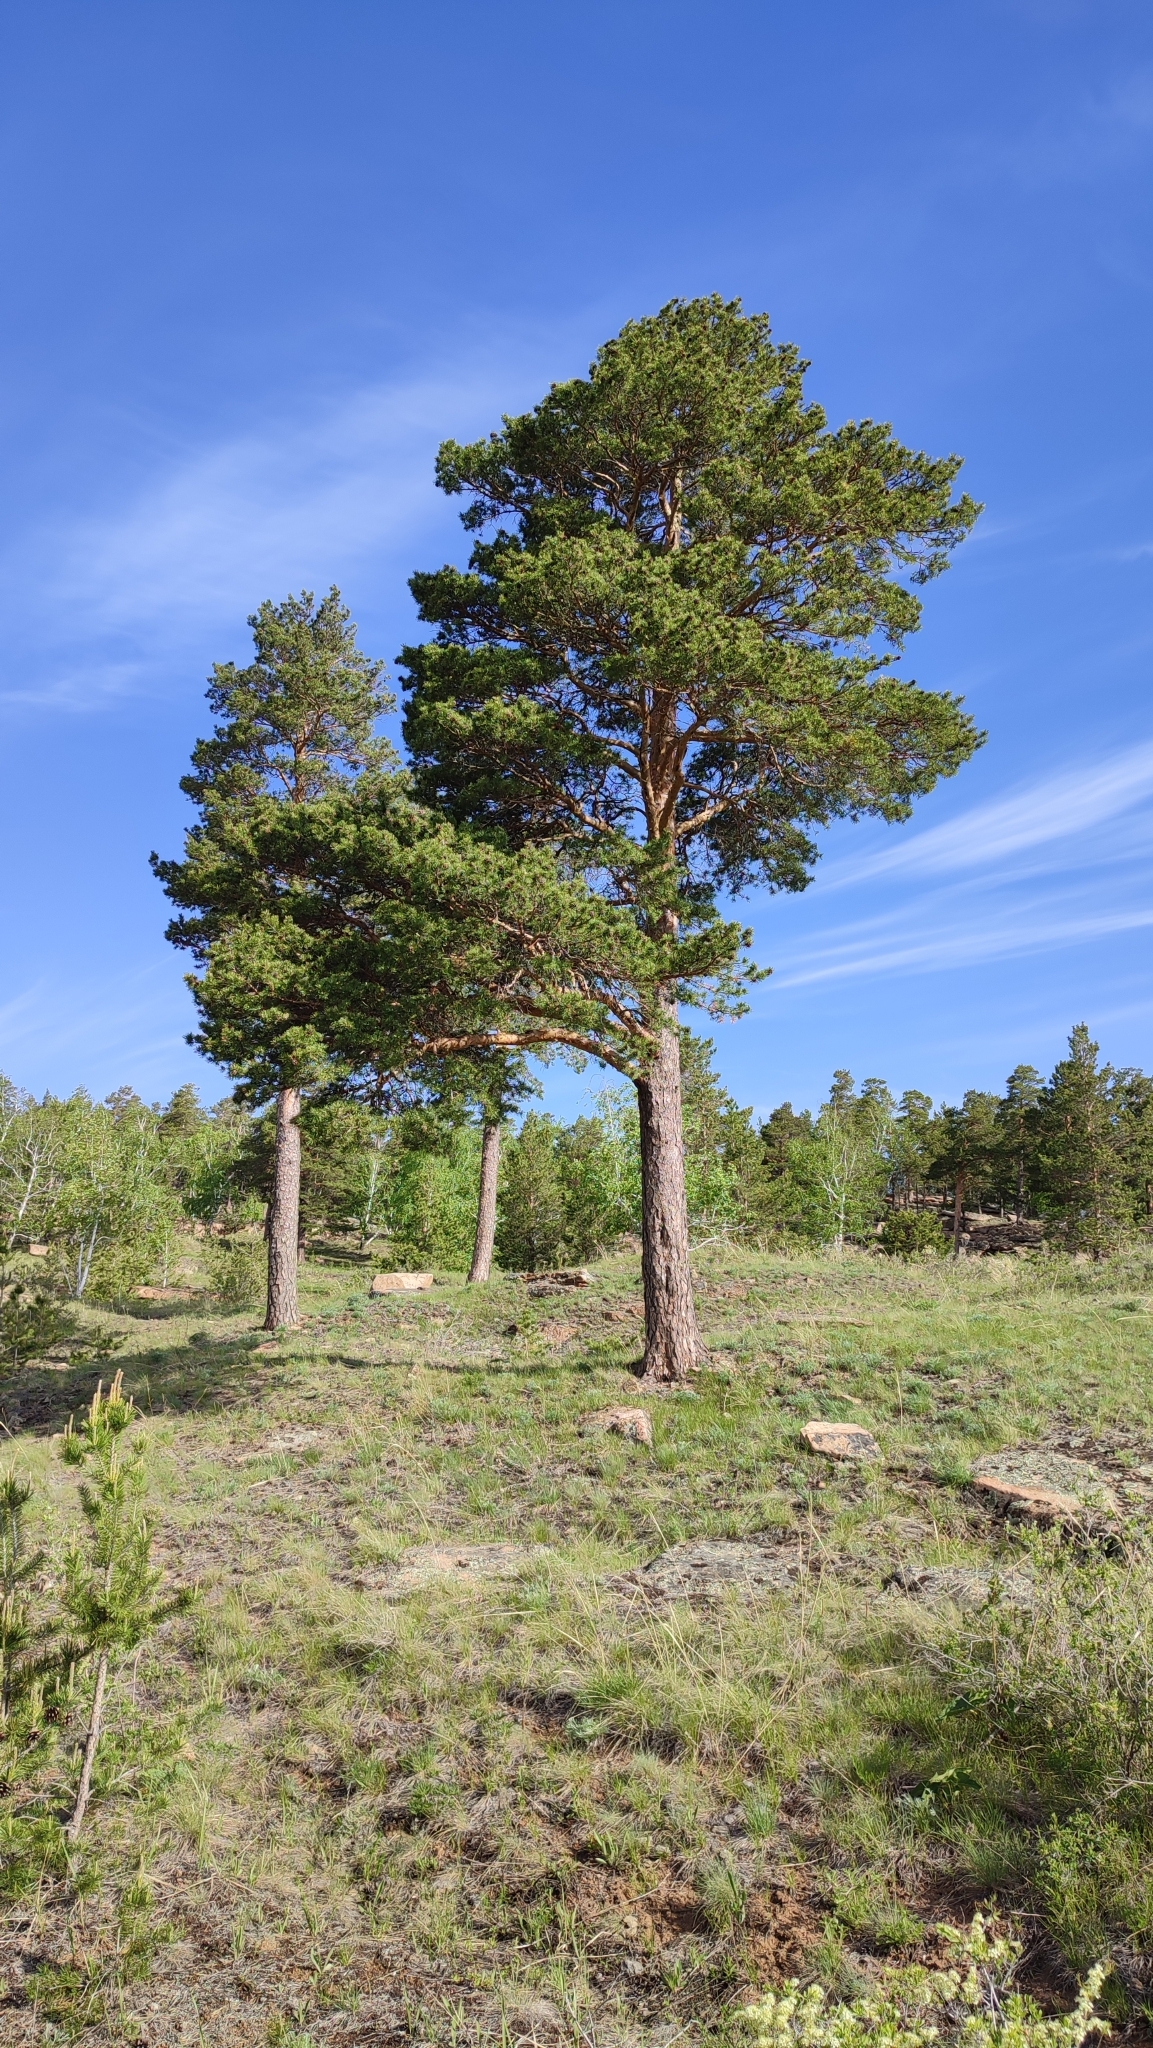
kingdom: Plantae
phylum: Tracheophyta
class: Pinopsida
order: Pinales
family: Pinaceae
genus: Pinus
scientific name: Pinus sylvestris
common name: Scots pine
